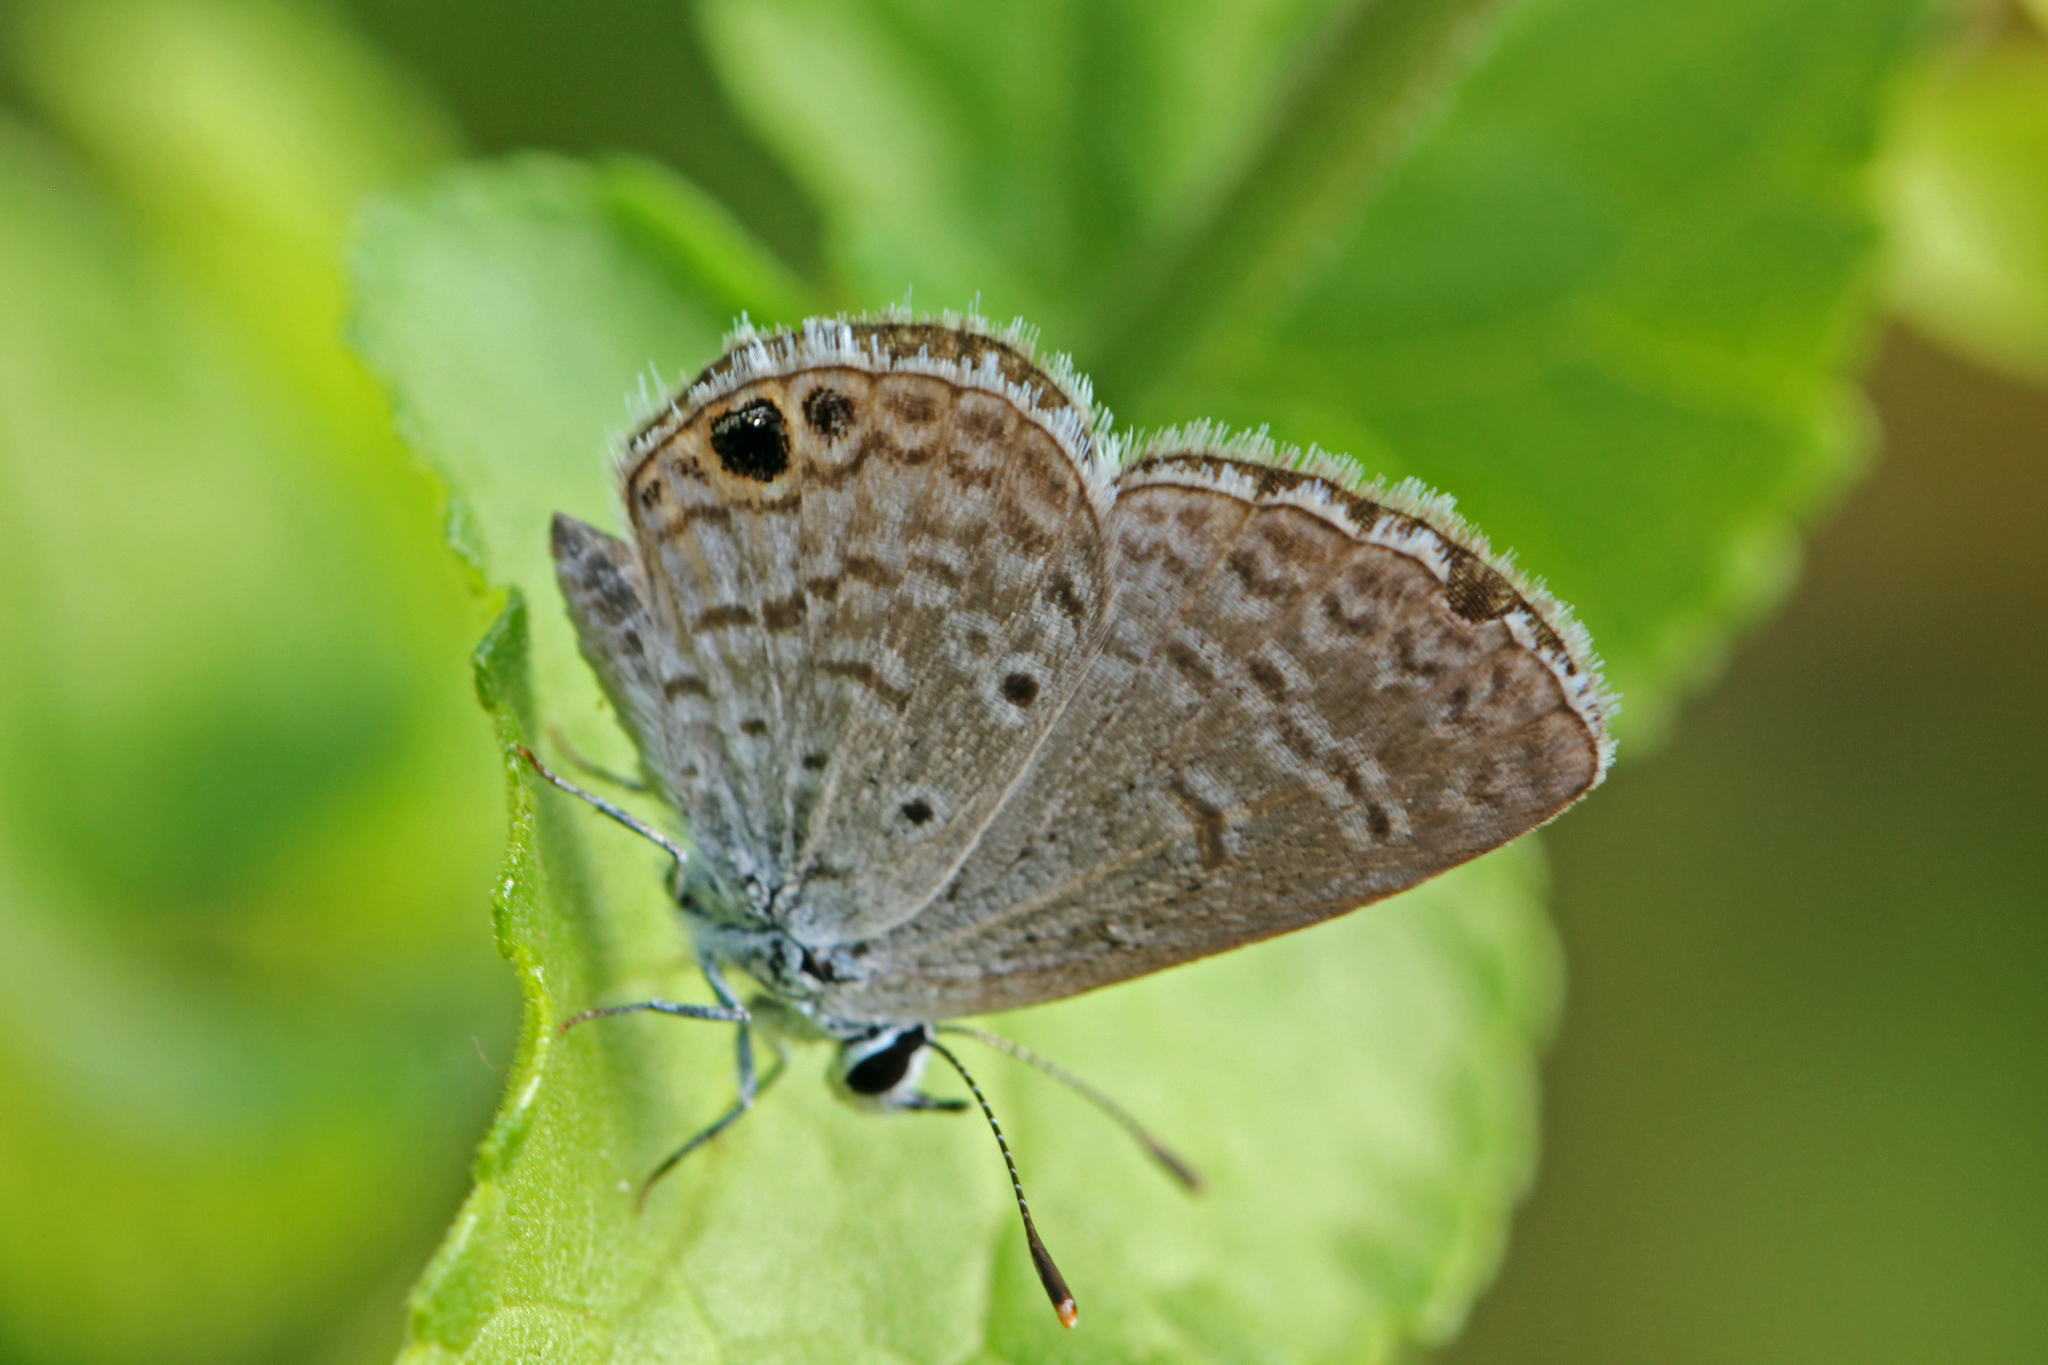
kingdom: Animalia
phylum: Arthropoda
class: Insecta
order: Lepidoptera
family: Lycaenidae
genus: Hemiargus
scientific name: Hemiargus ceraunus
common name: Ceraunus blue
